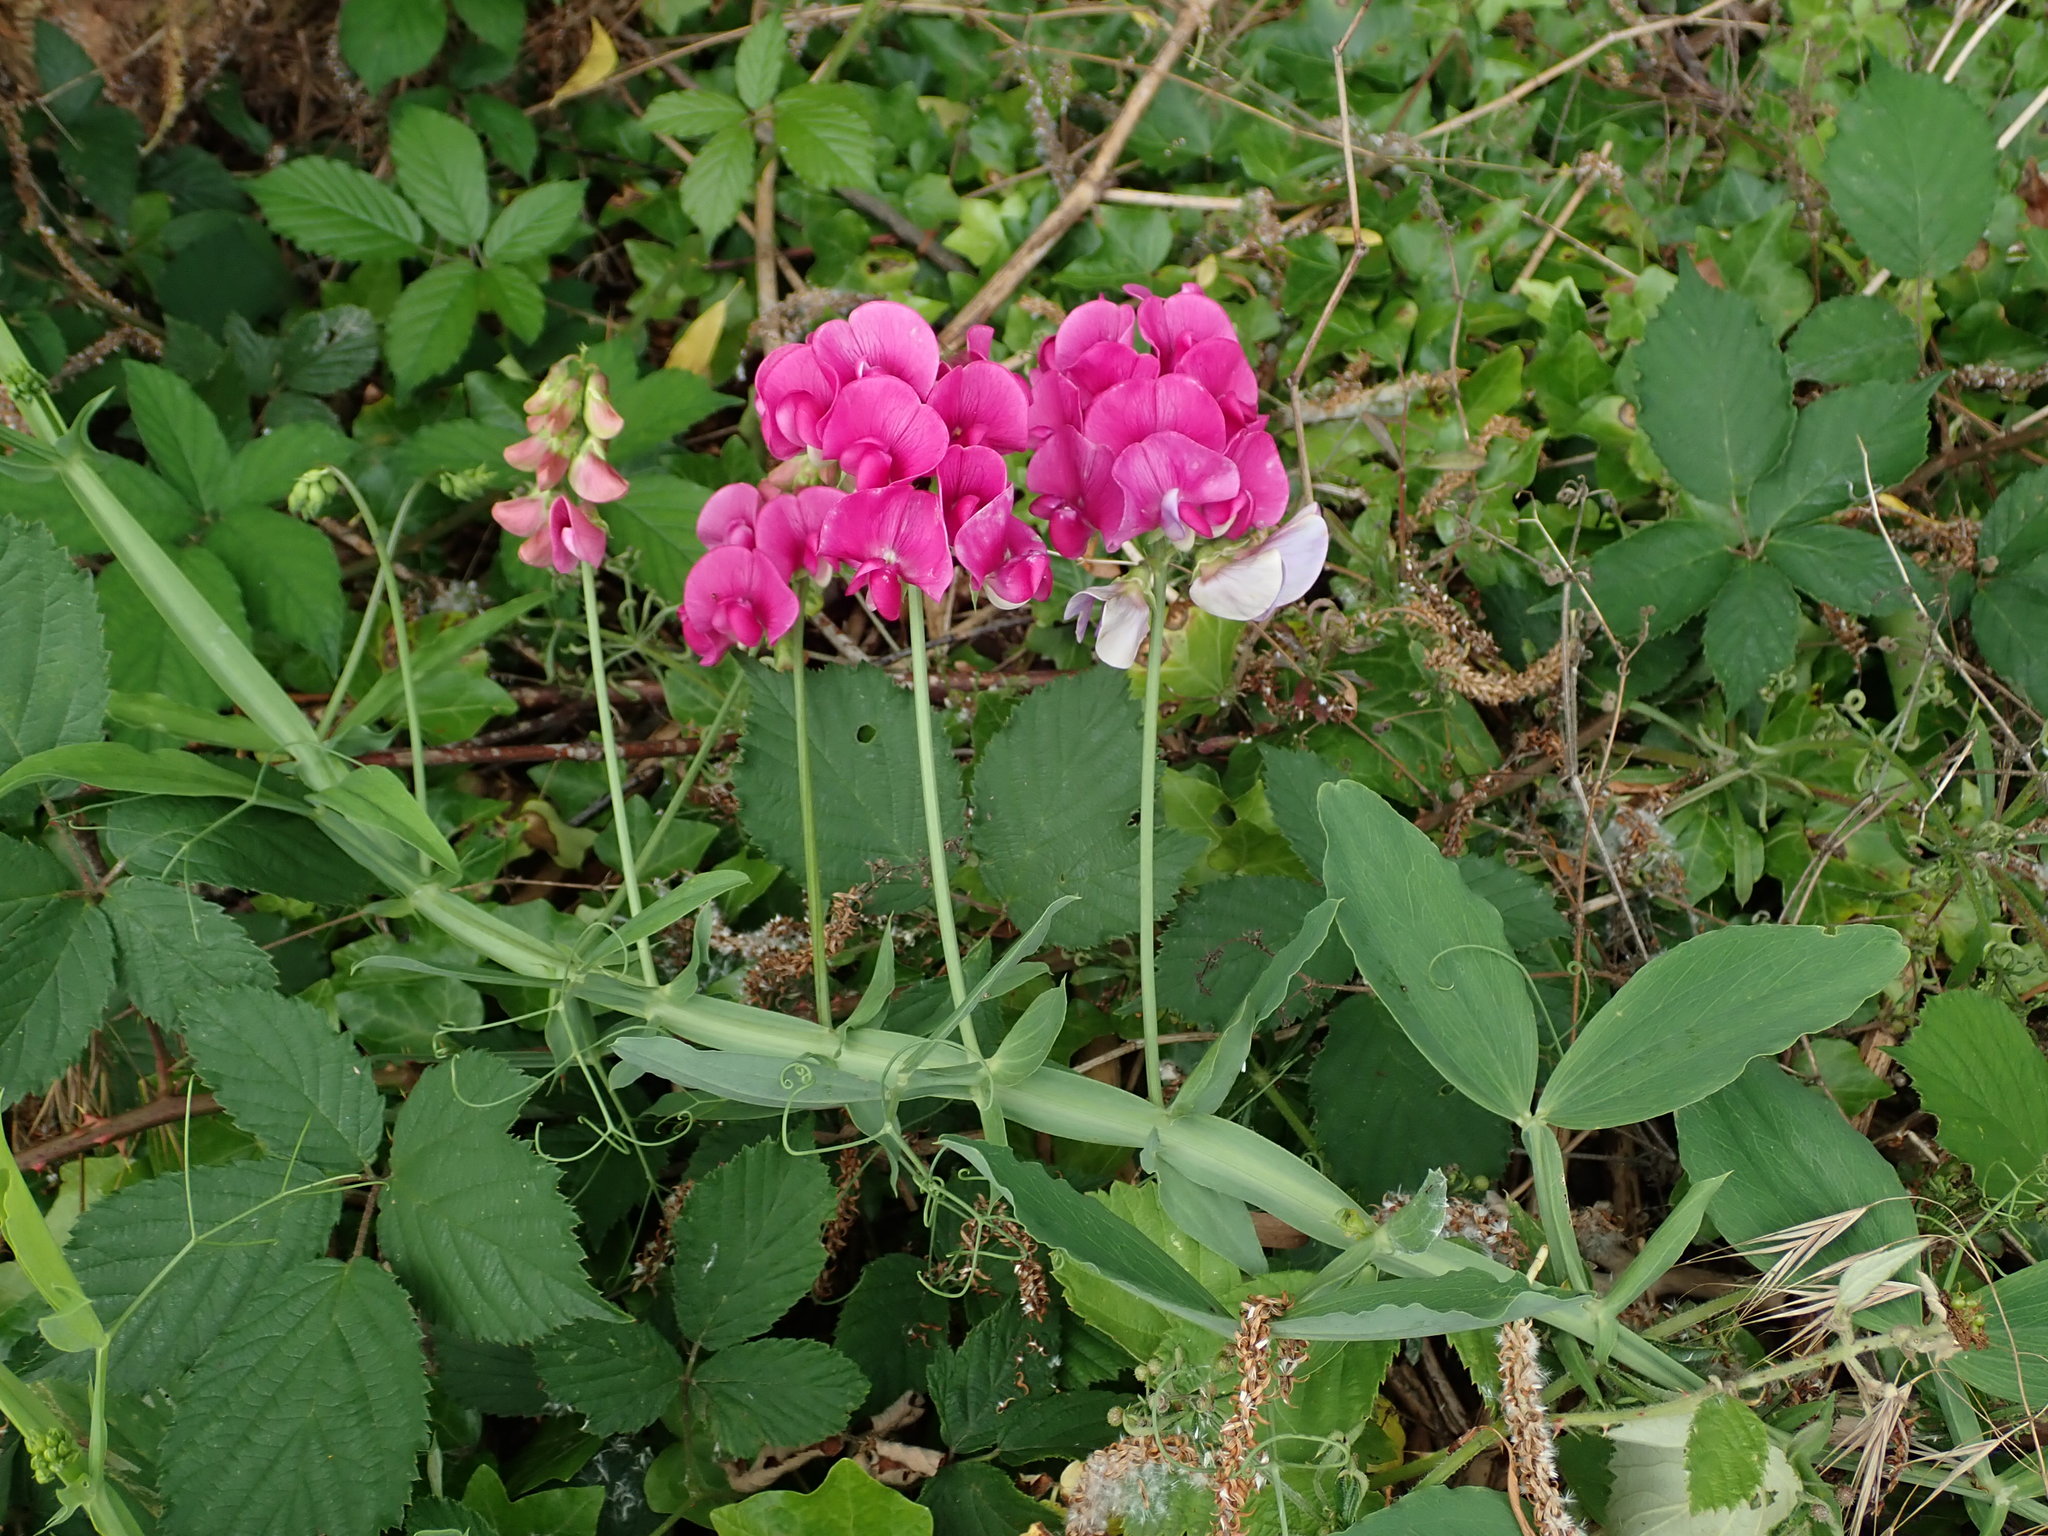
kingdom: Plantae
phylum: Tracheophyta
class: Magnoliopsida
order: Fabales
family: Fabaceae
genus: Lathyrus
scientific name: Lathyrus latifolius
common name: Perennial pea
